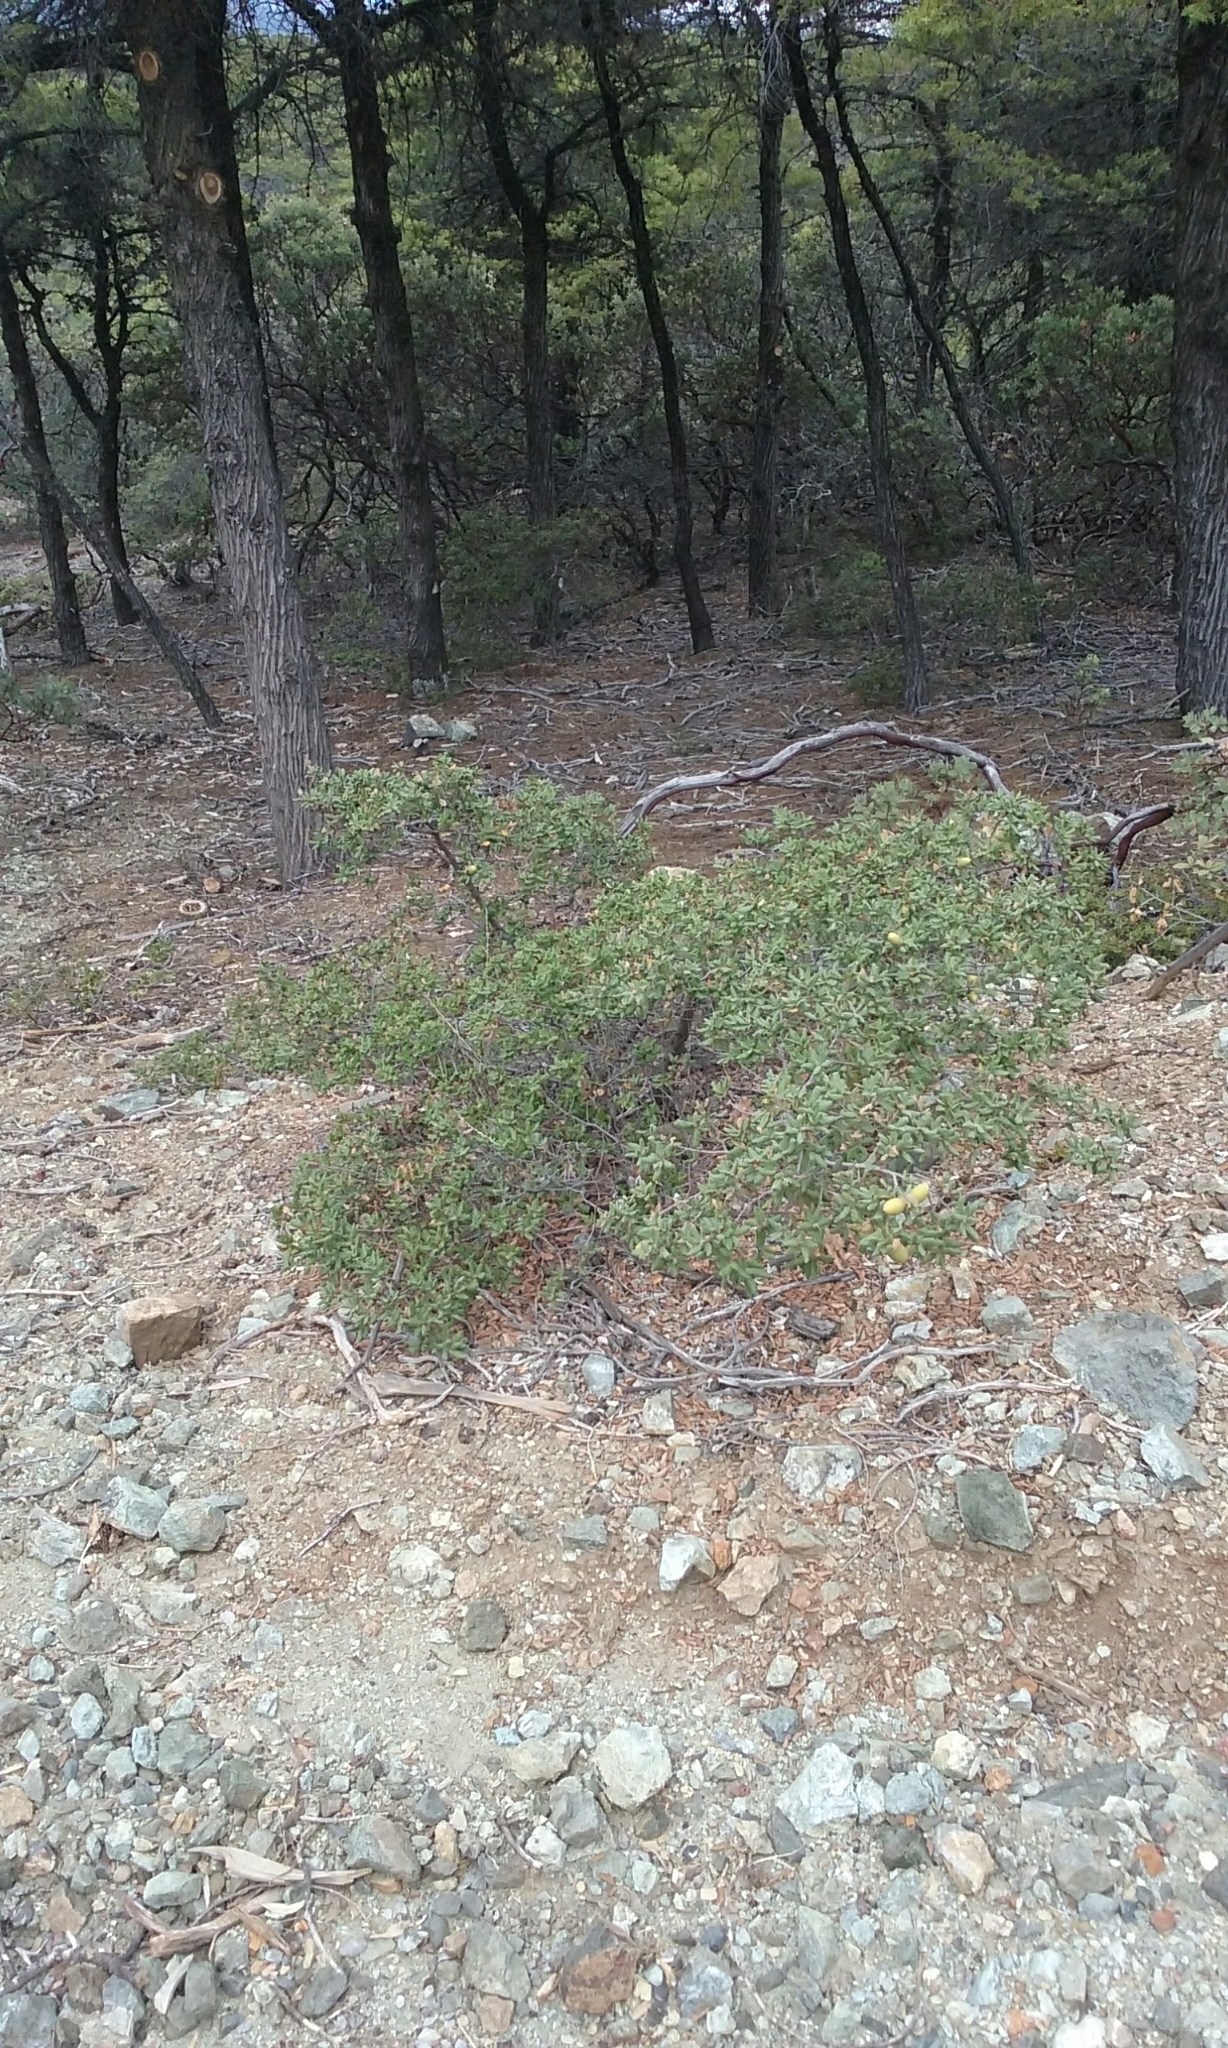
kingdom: Plantae
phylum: Tracheophyta
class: Magnoliopsida
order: Fagales
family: Fagaceae
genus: Quercus
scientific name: Quercus durata
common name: Leather oak
